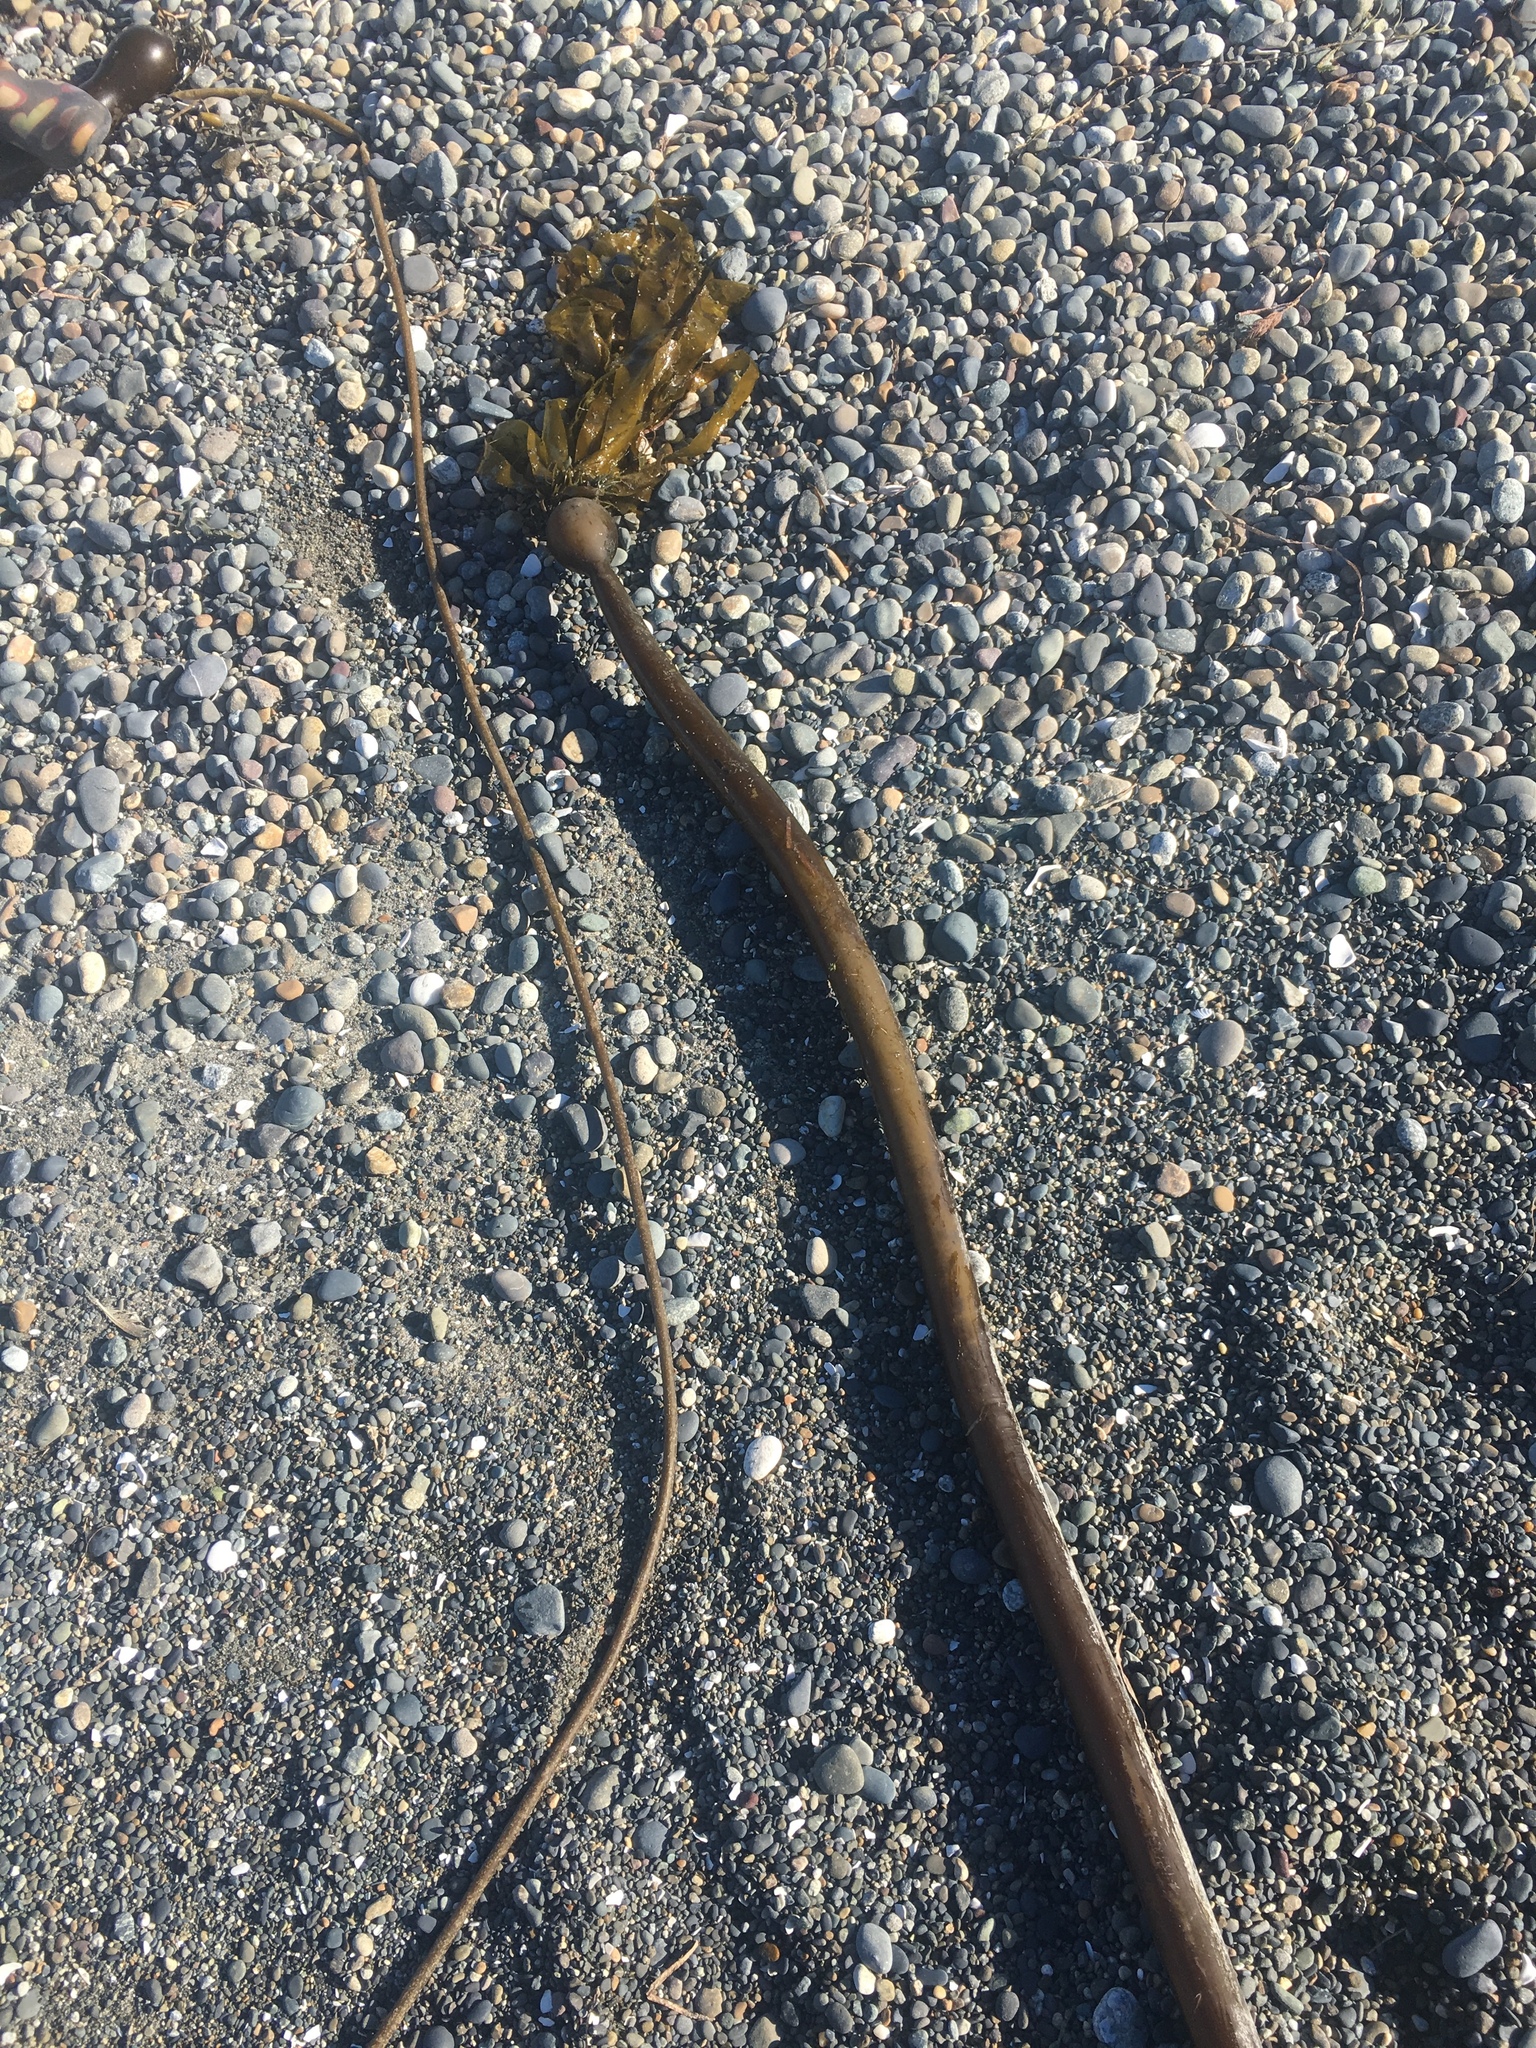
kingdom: Chromista
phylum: Ochrophyta
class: Phaeophyceae
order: Laminariales
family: Laminariaceae
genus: Nereocystis
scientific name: Nereocystis luetkeana
